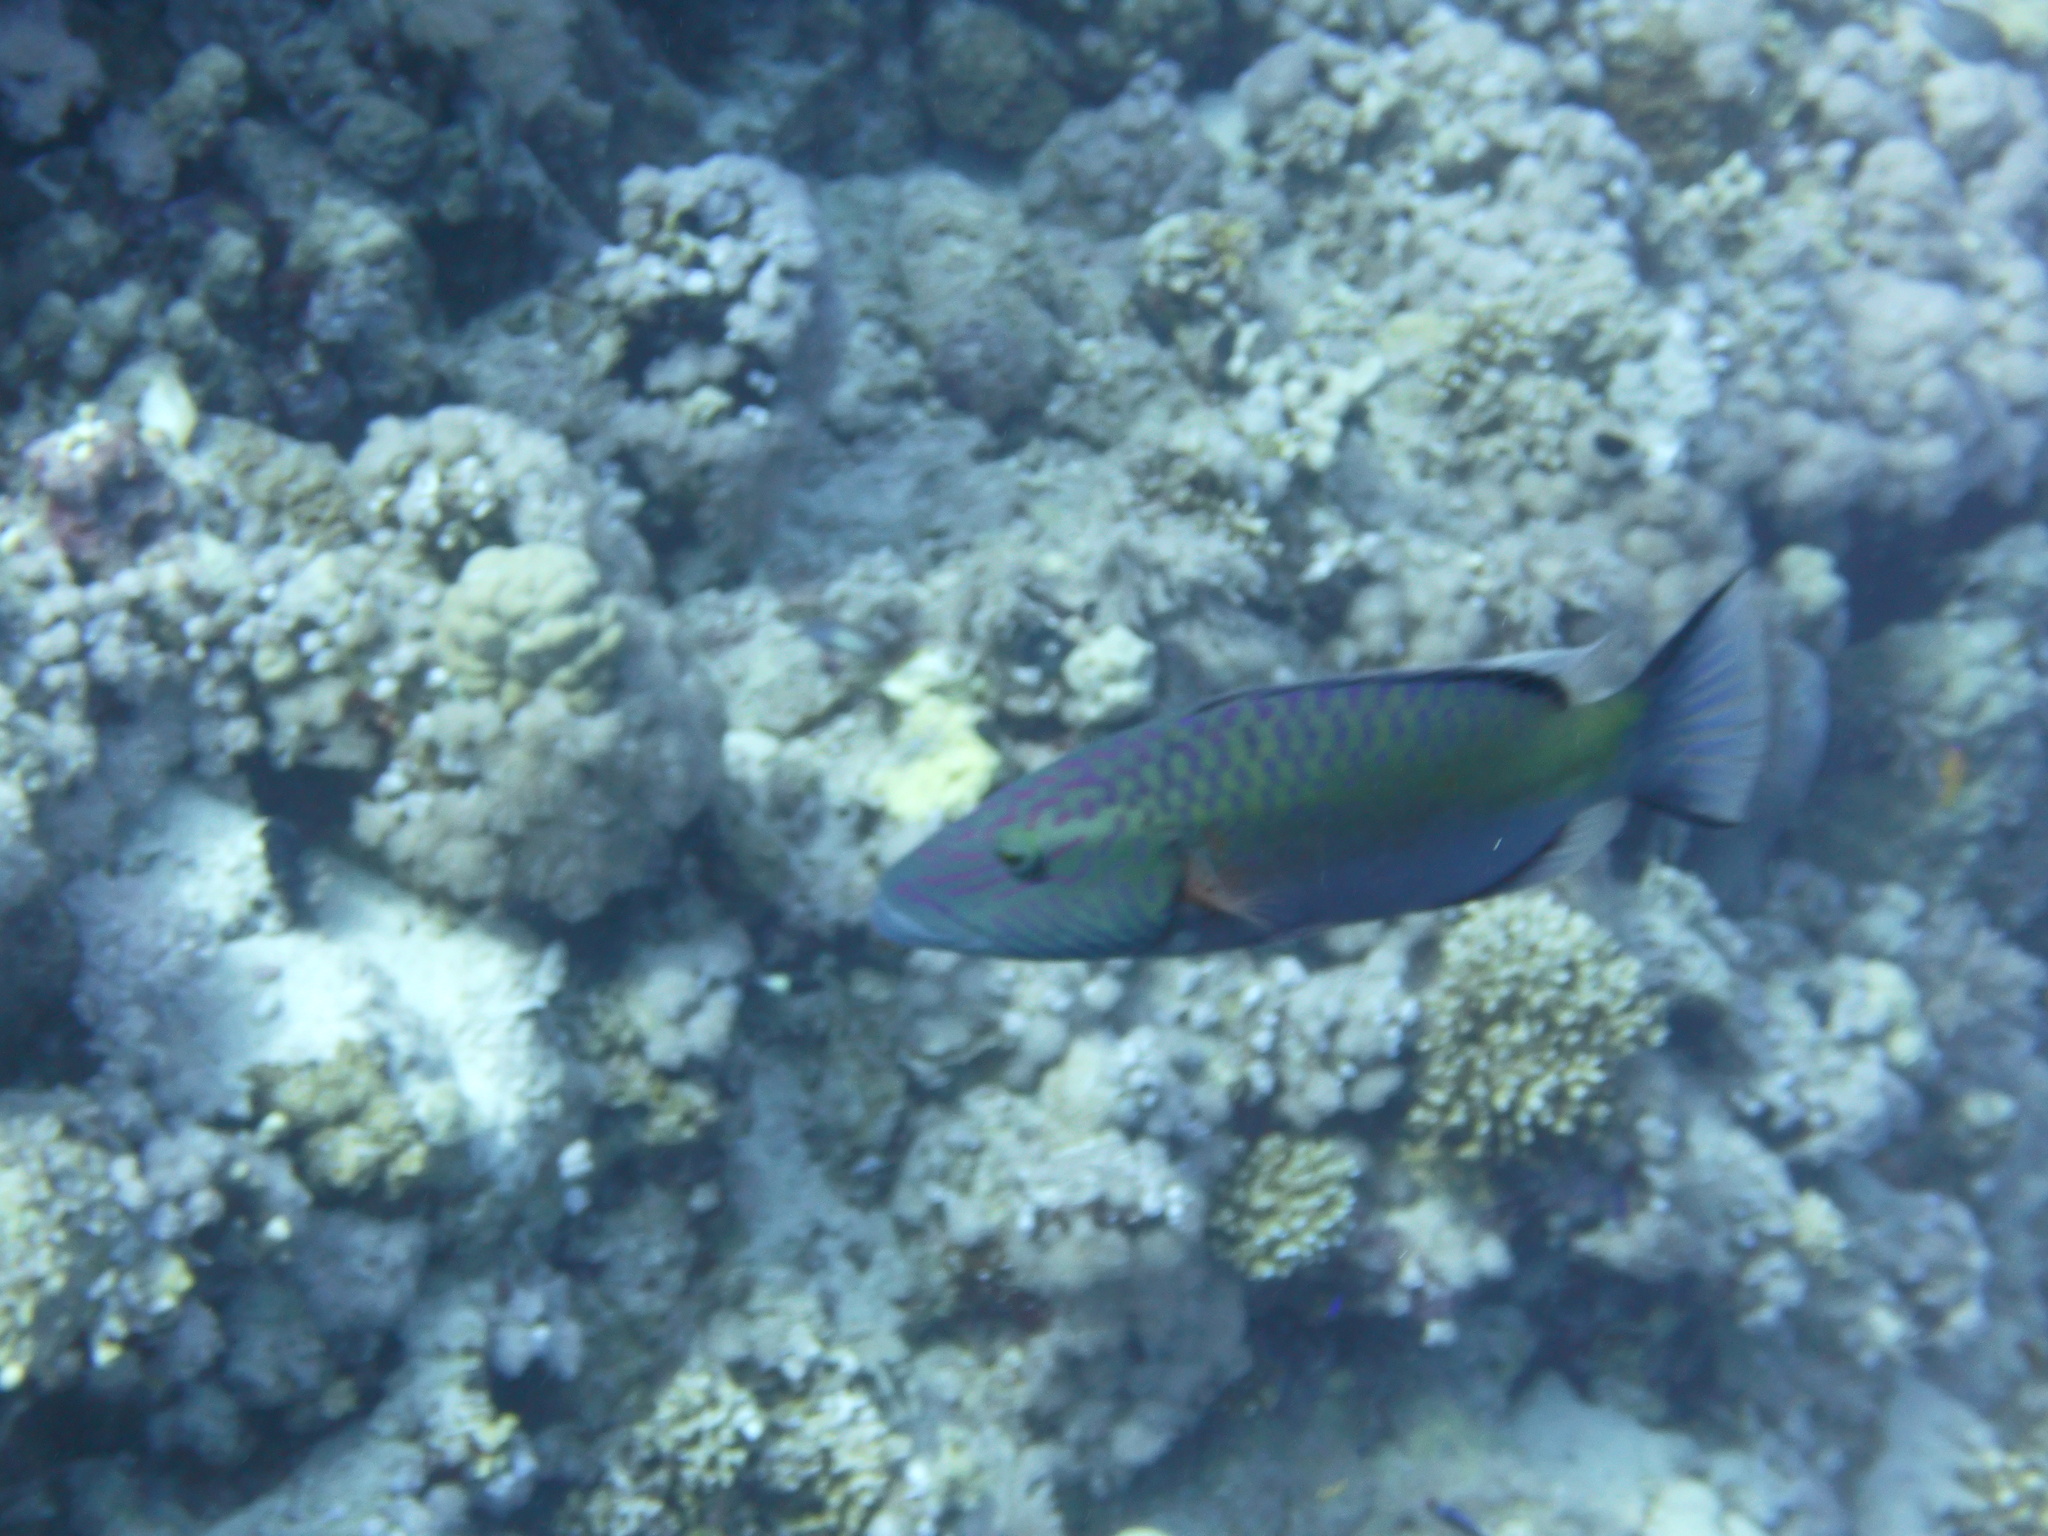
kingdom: Animalia
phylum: Chordata
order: Perciformes
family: Labridae
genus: Oxycheilinus
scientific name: Oxycheilinus digramma
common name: Bandcheek wrasse
